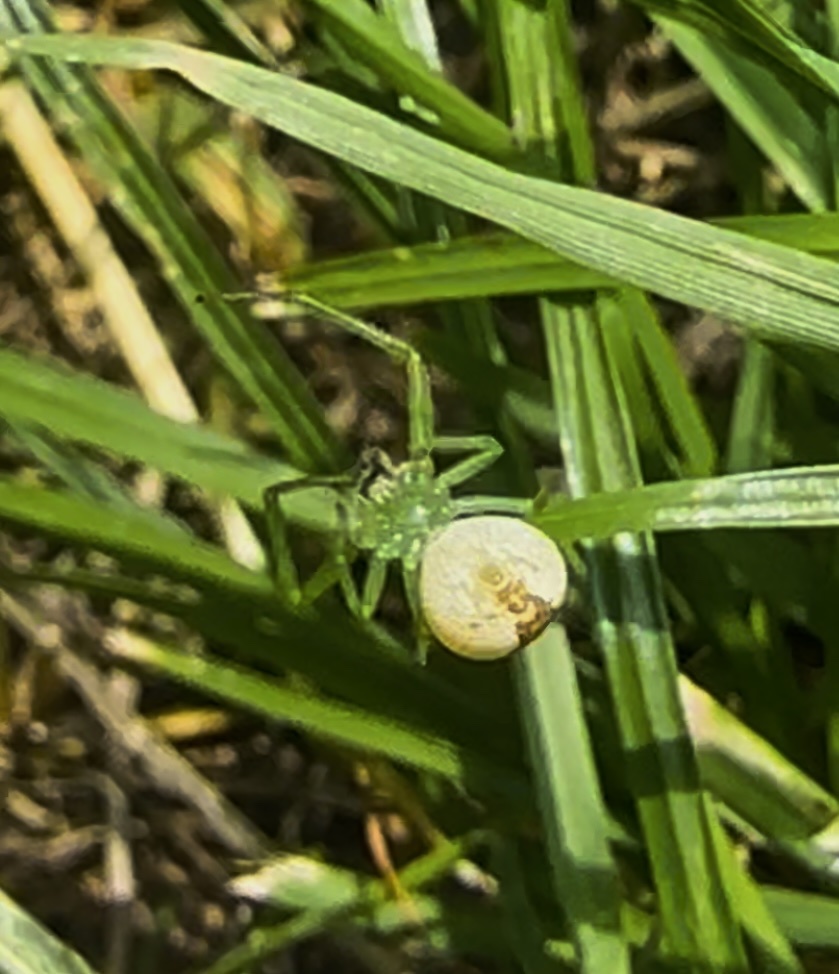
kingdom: Animalia
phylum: Arthropoda
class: Arachnida
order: Araneae
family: Thomisidae
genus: Diaea
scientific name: Diaea dorsata
